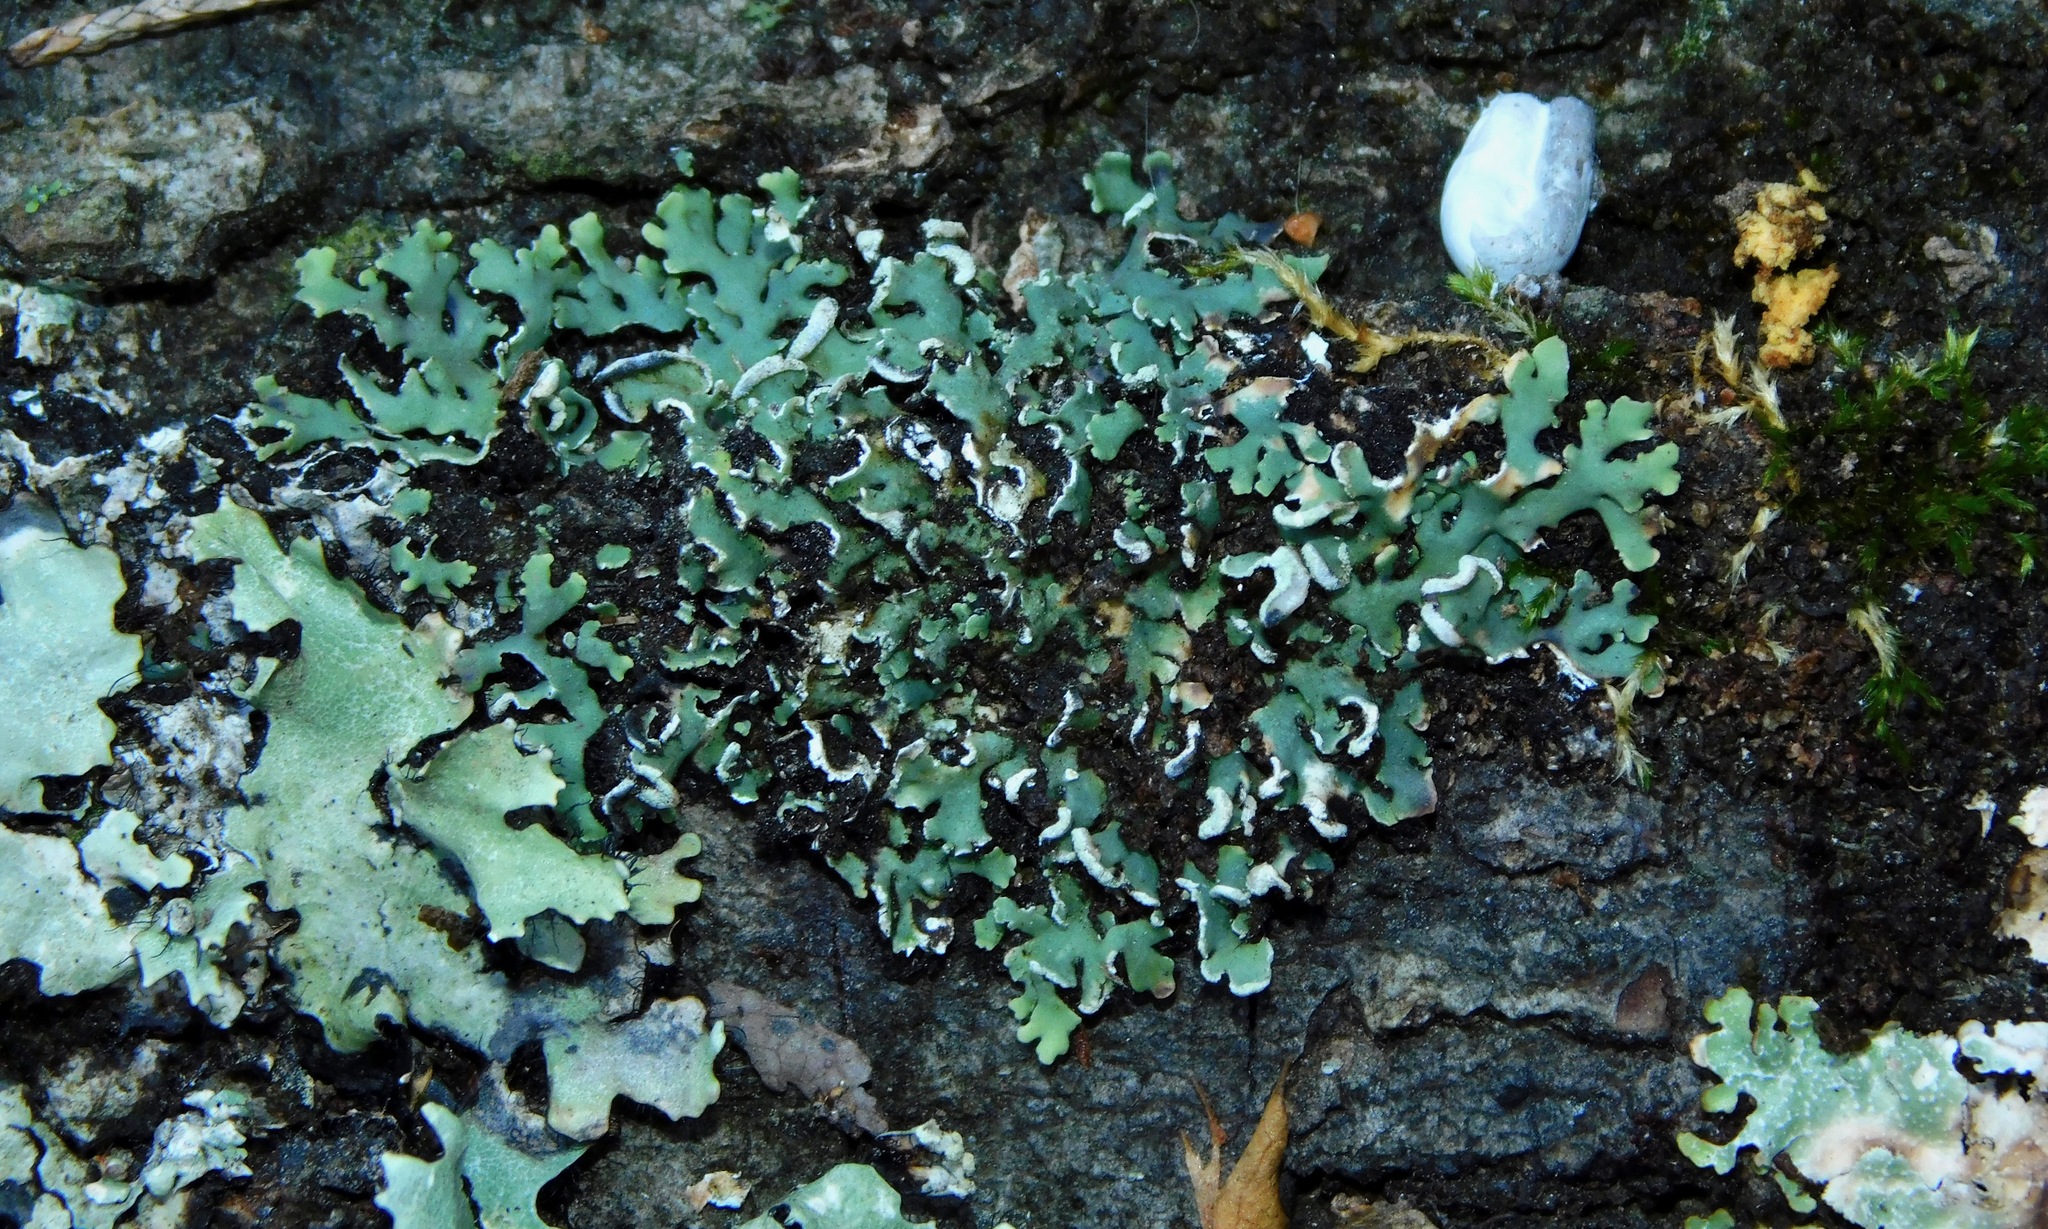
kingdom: Fungi
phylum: Ascomycota
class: Lecanoromycetes
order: Caliciales
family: Physciaceae
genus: Polyblastidium
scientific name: Polyblastidium japonicum
